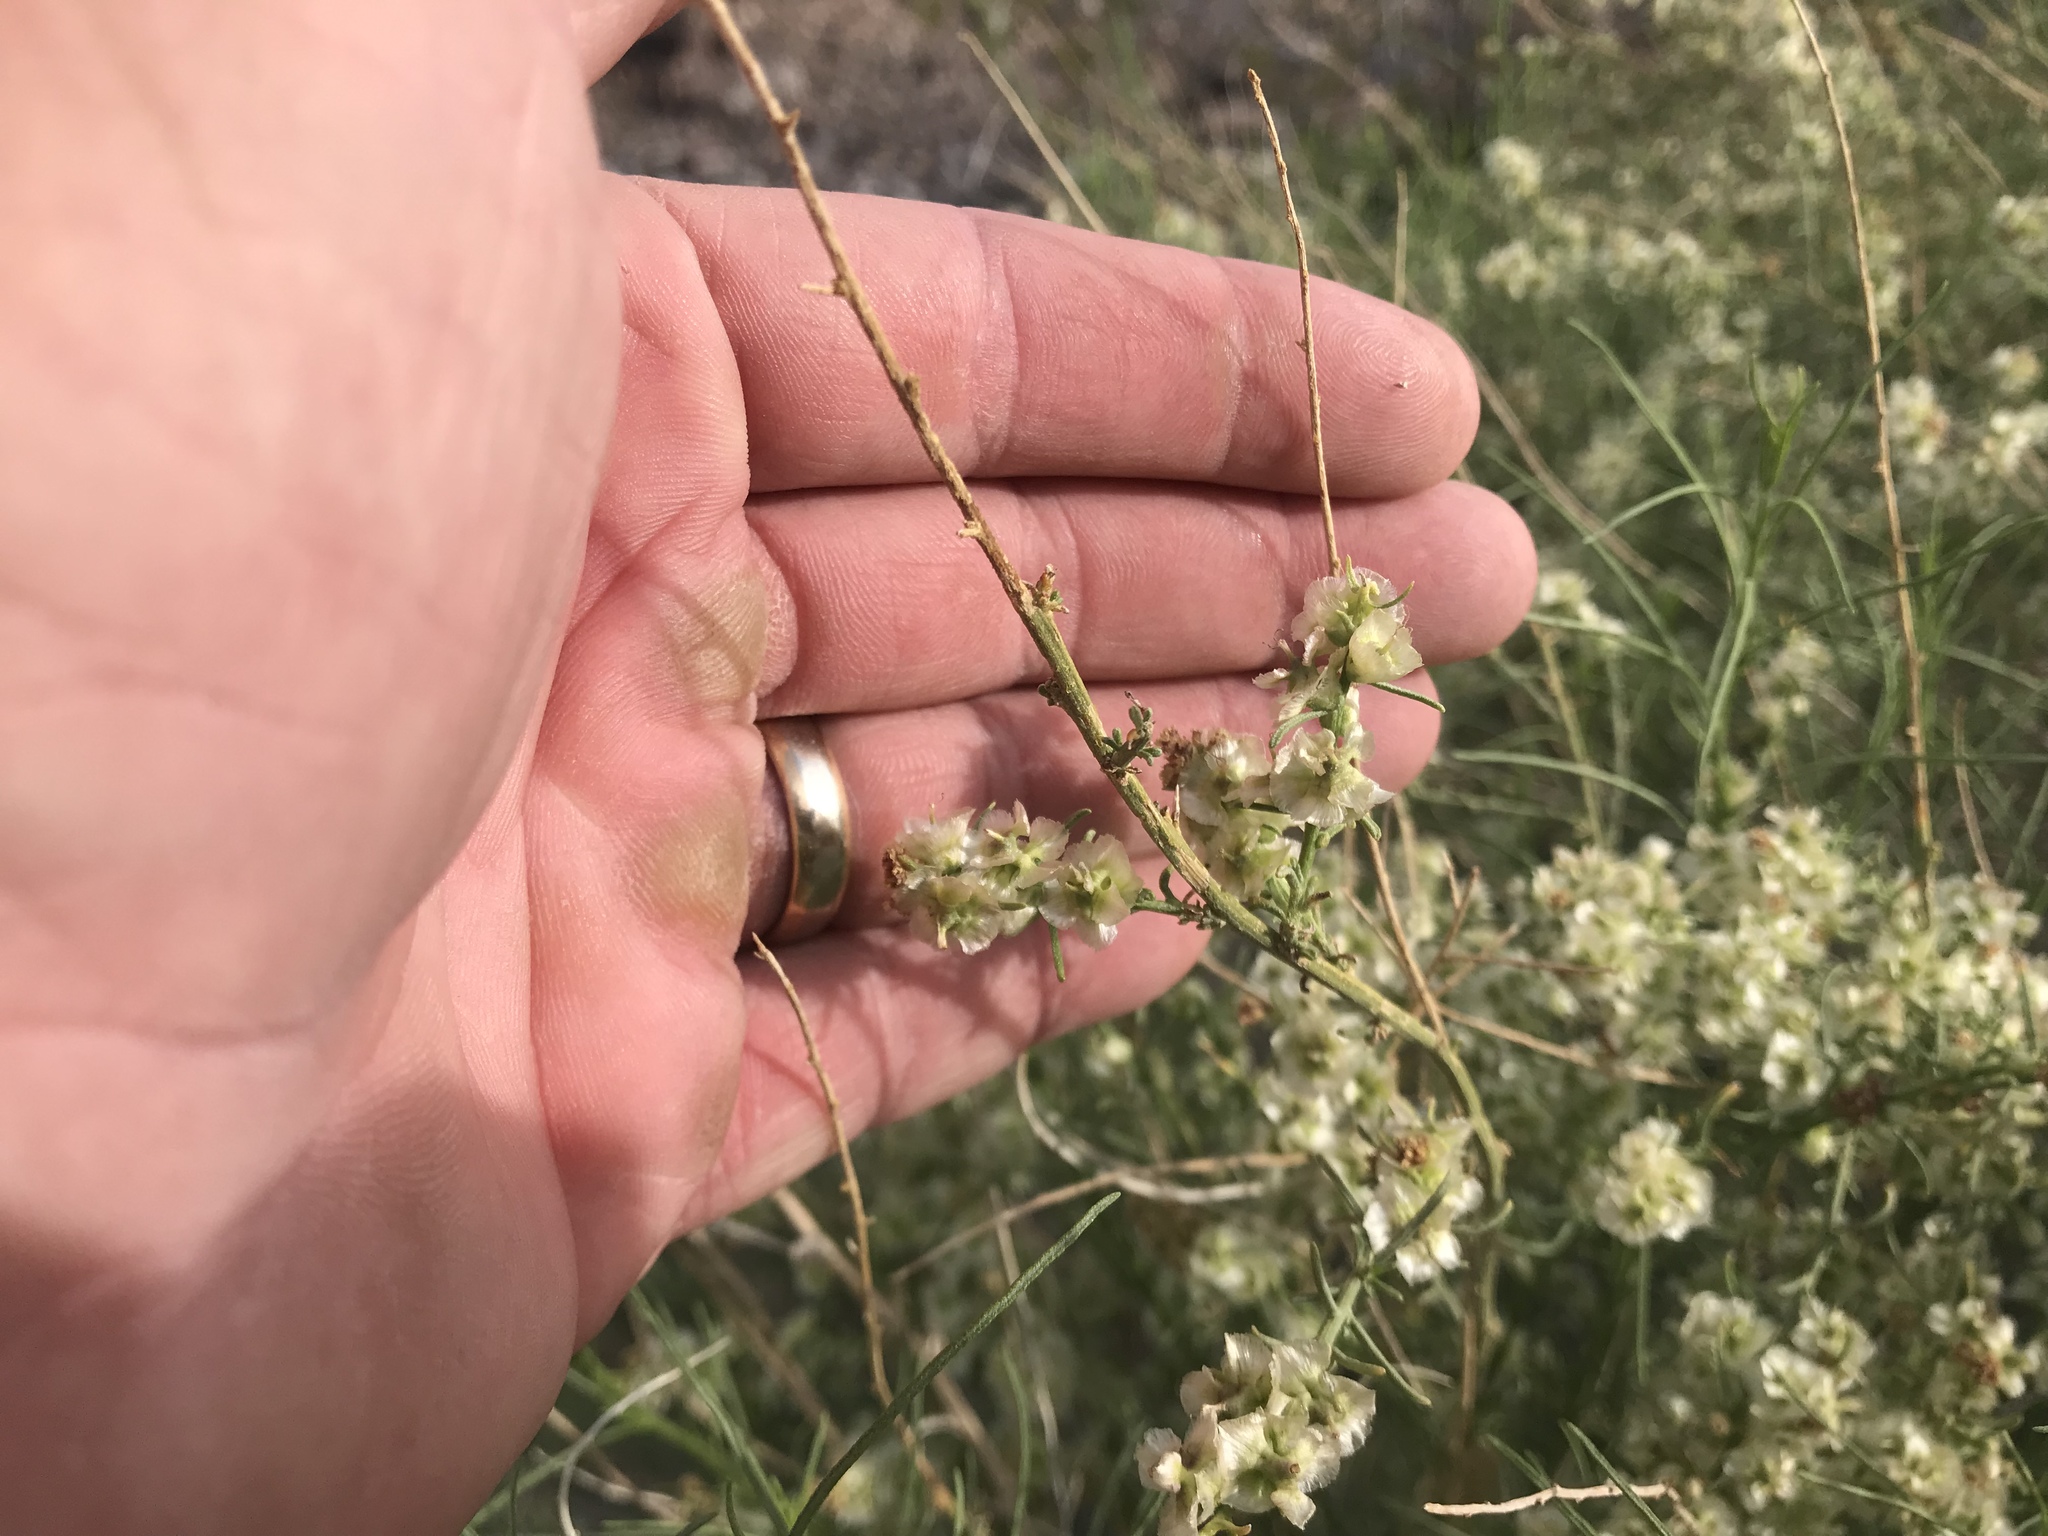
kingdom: Plantae
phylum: Tracheophyta
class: Magnoliopsida
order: Asterales
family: Asteraceae
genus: Ambrosia
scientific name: Ambrosia salsola
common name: Burrobrush
